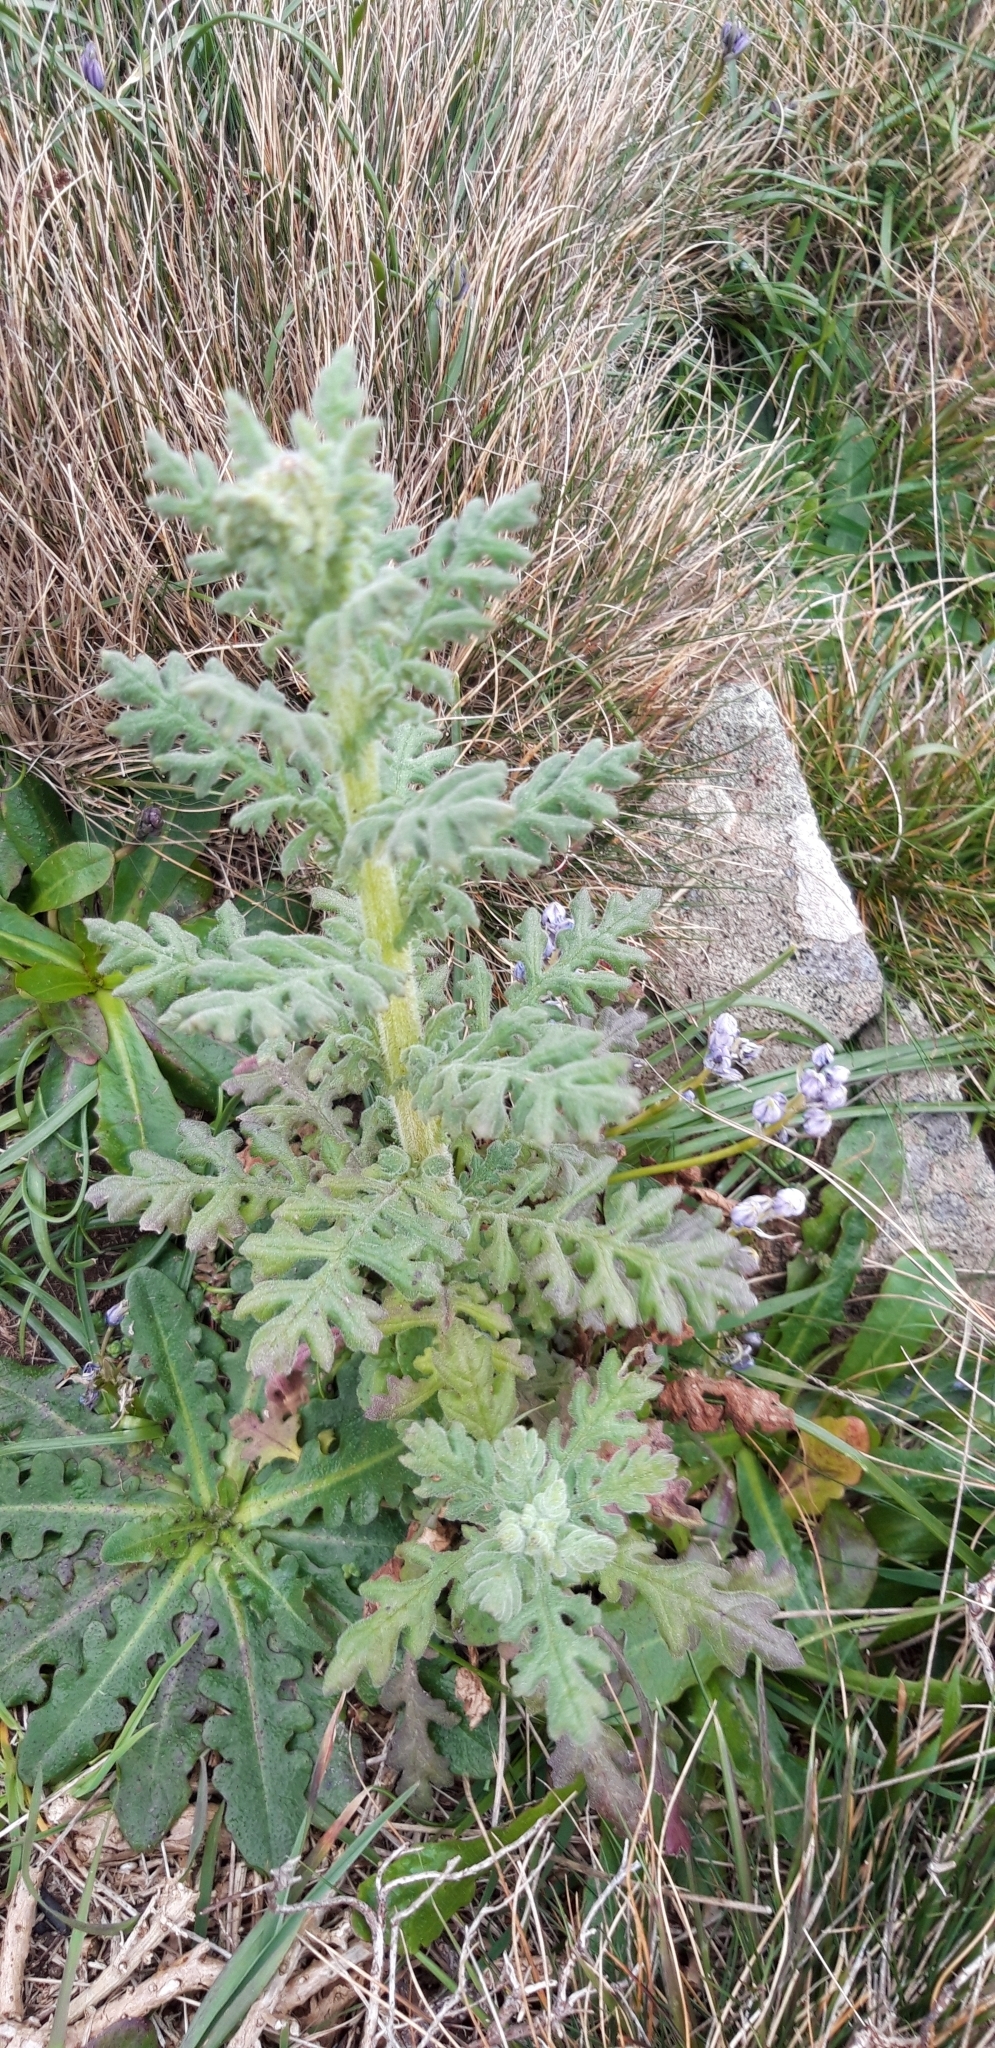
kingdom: Plantae
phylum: Tracheophyta
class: Magnoliopsida
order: Asterales
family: Asteraceae
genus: Senecio
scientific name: Senecio sylvaticus
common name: Woodland ragwort
